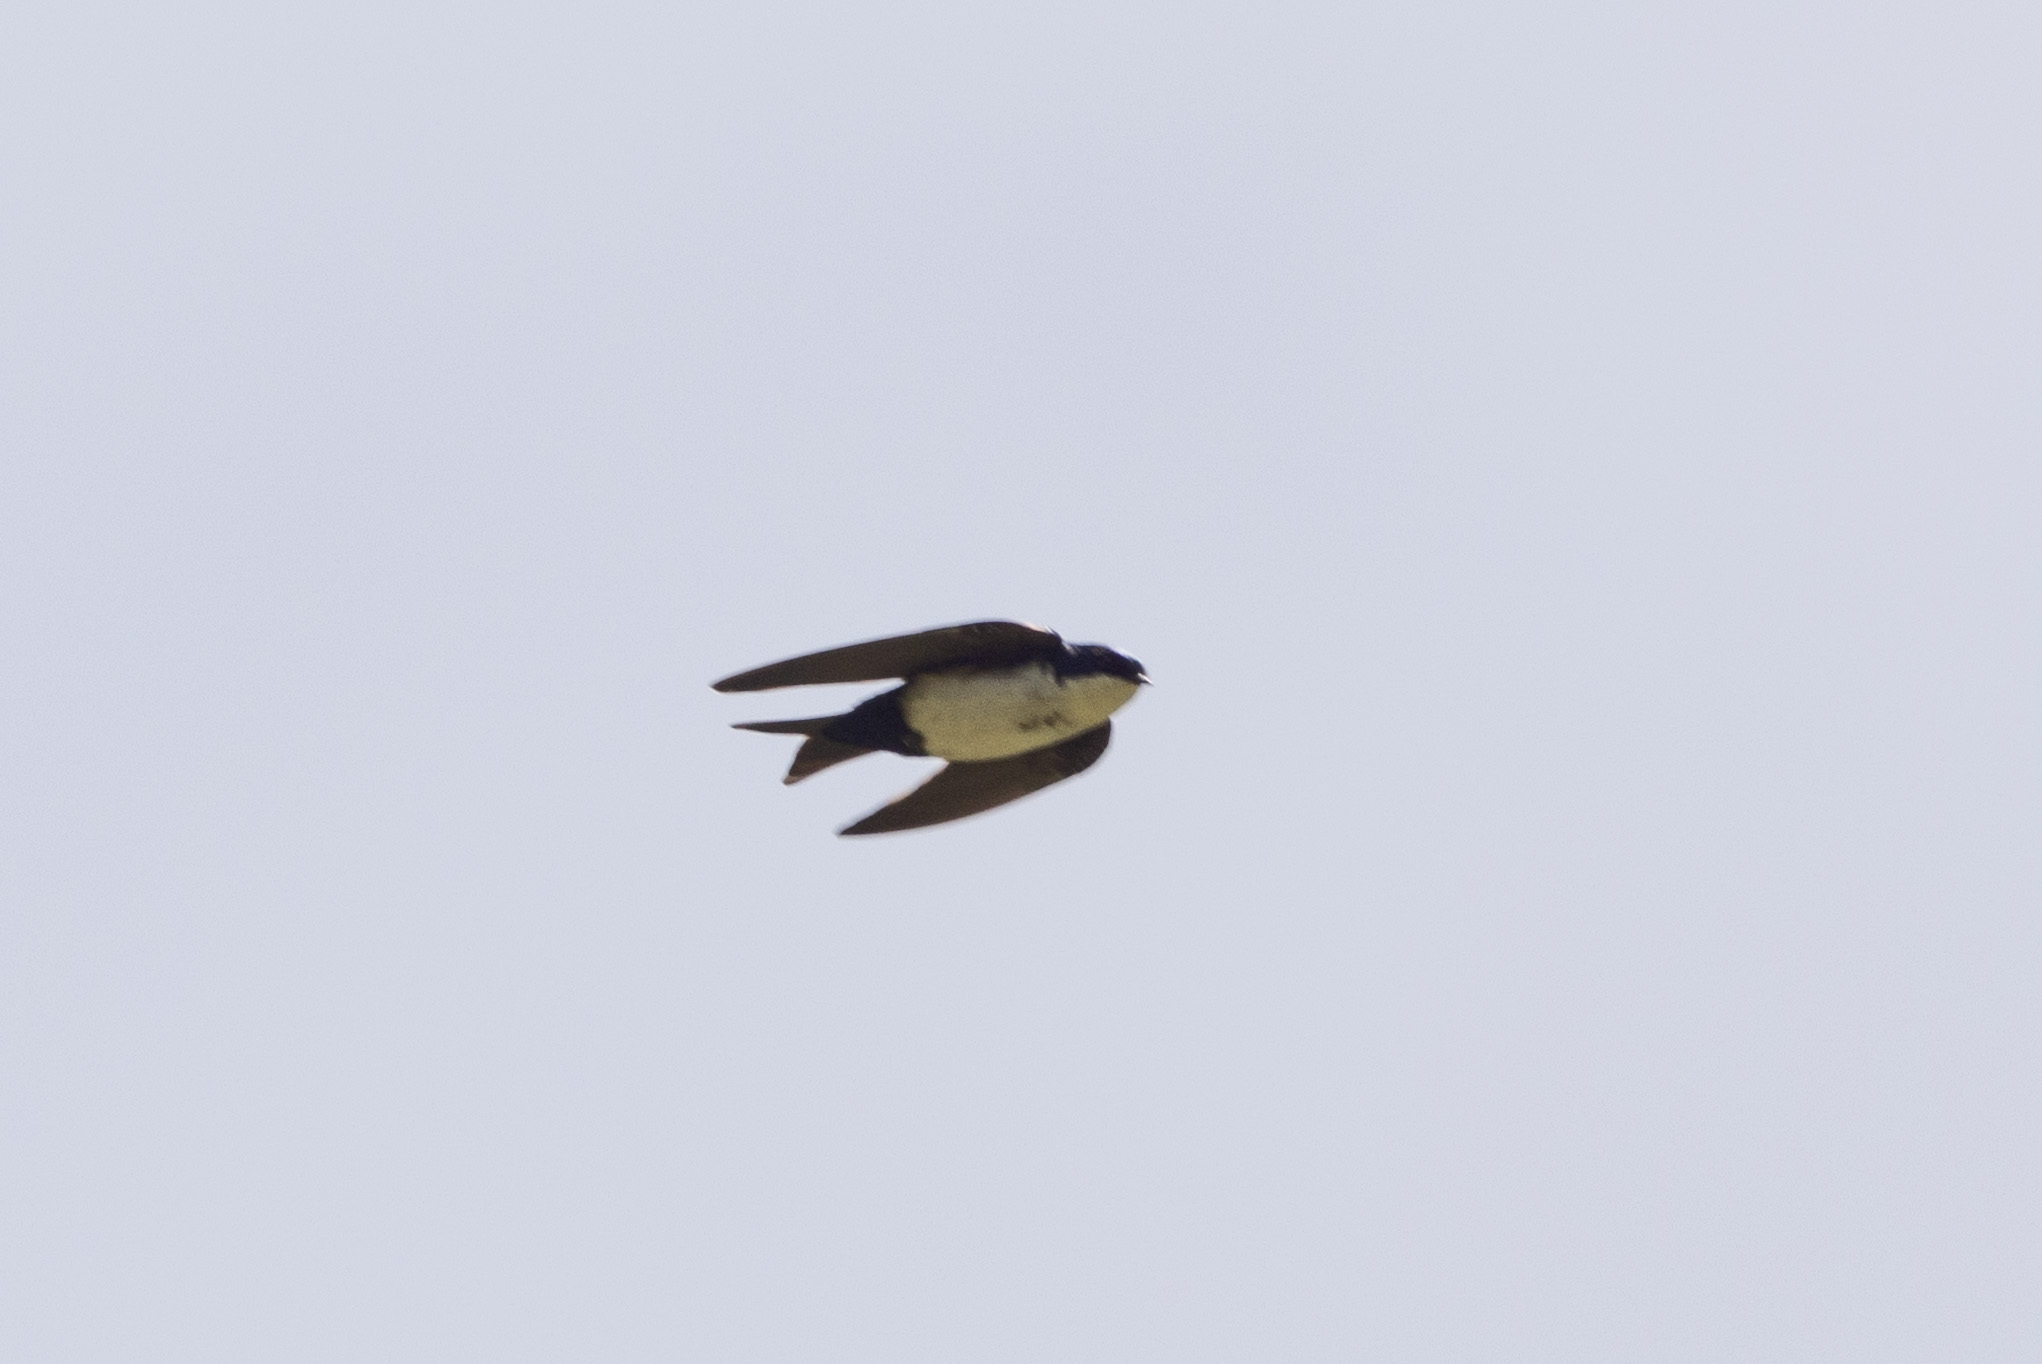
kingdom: Animalia
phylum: Chordata
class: Aves
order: Passeriformes
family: Hirundinidae
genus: Notiochelidon
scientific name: Notiochelidon cyanoleuca
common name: Blue-and-white swallow
